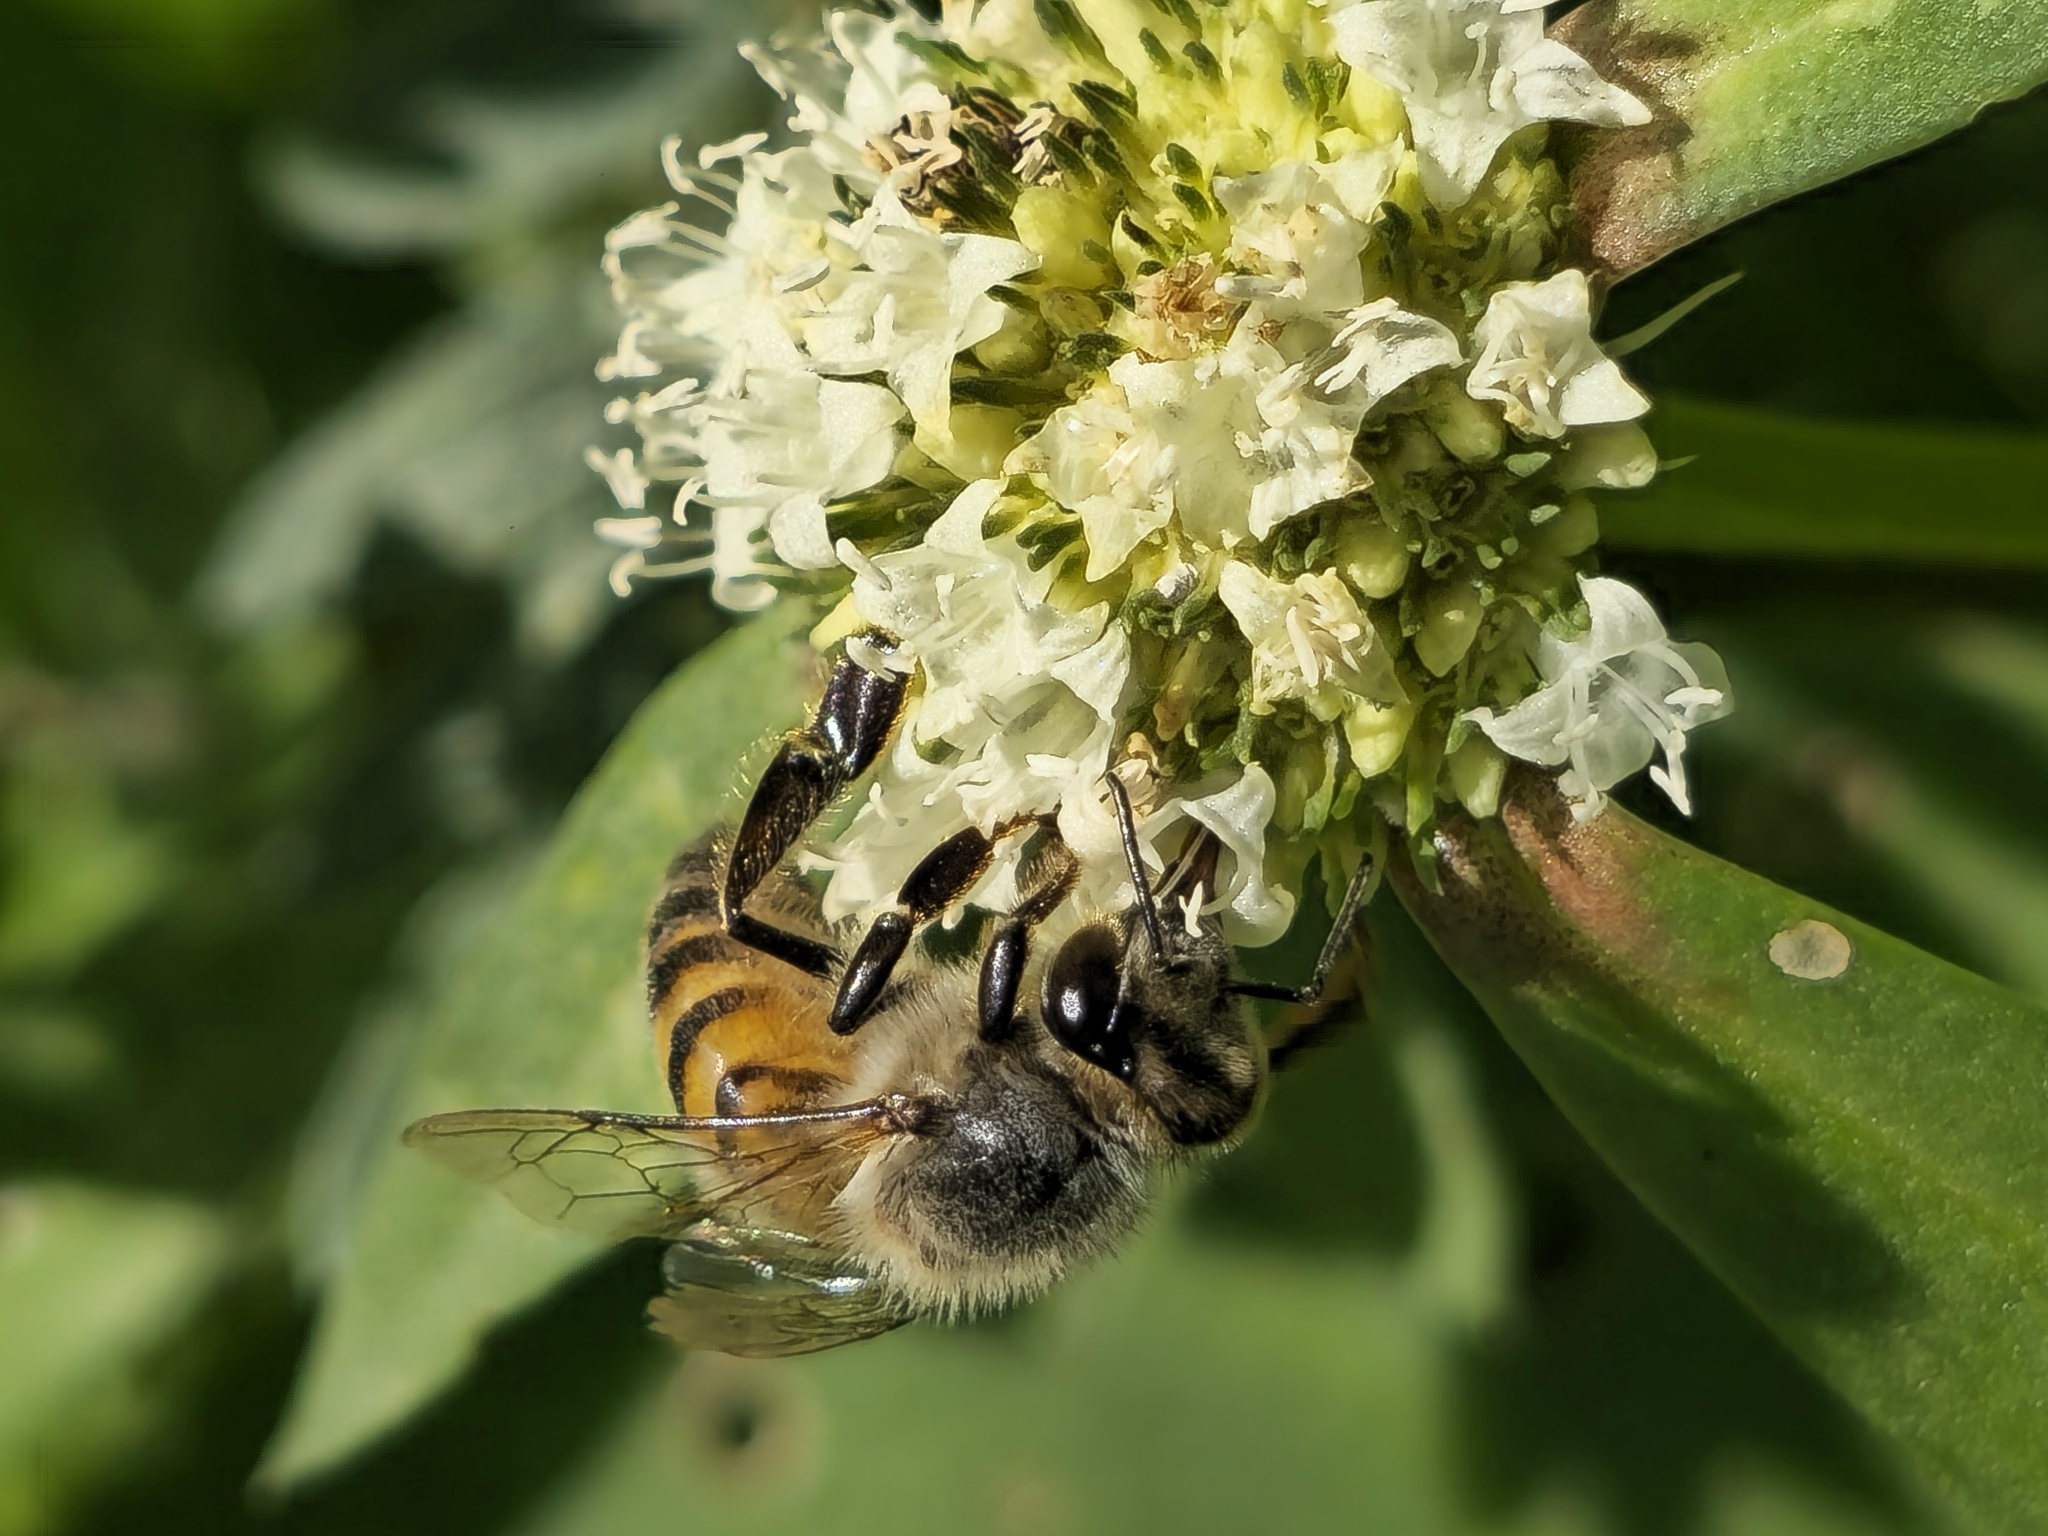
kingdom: Animalia
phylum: Arthropoda
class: Insecta
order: Hymenoptera
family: Apidae
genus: Apis
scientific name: Apis mellifera
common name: Honey bee
